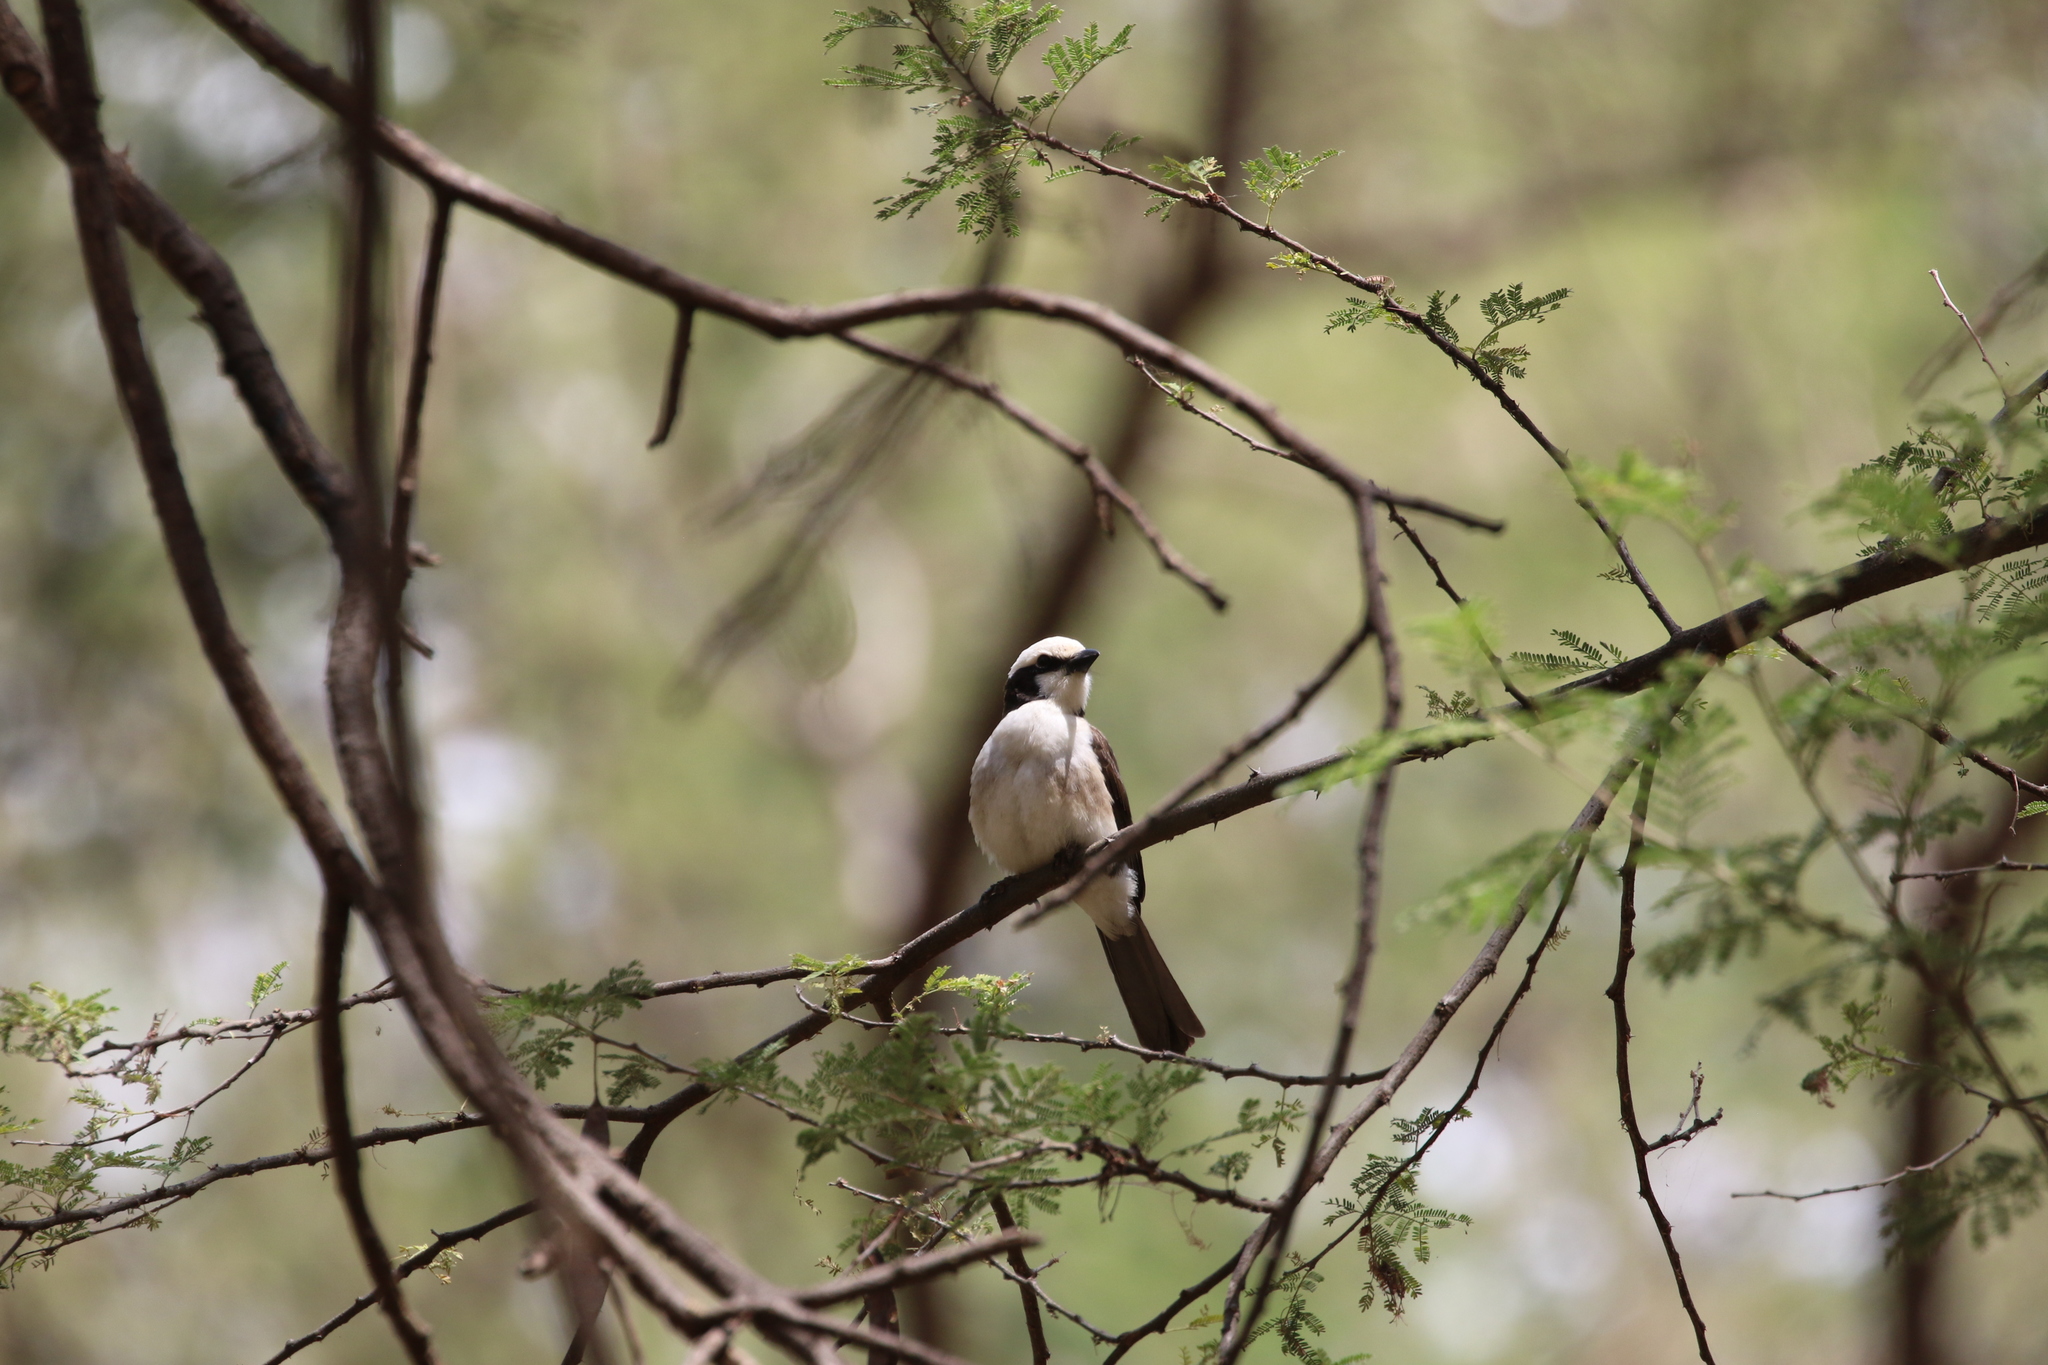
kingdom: Animalia
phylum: Chordata
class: Aves
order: Passeriformes
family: Laniidae
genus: Eurocephalus
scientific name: Eurocephalus ruppelli
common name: Northern white-crowned shrike
